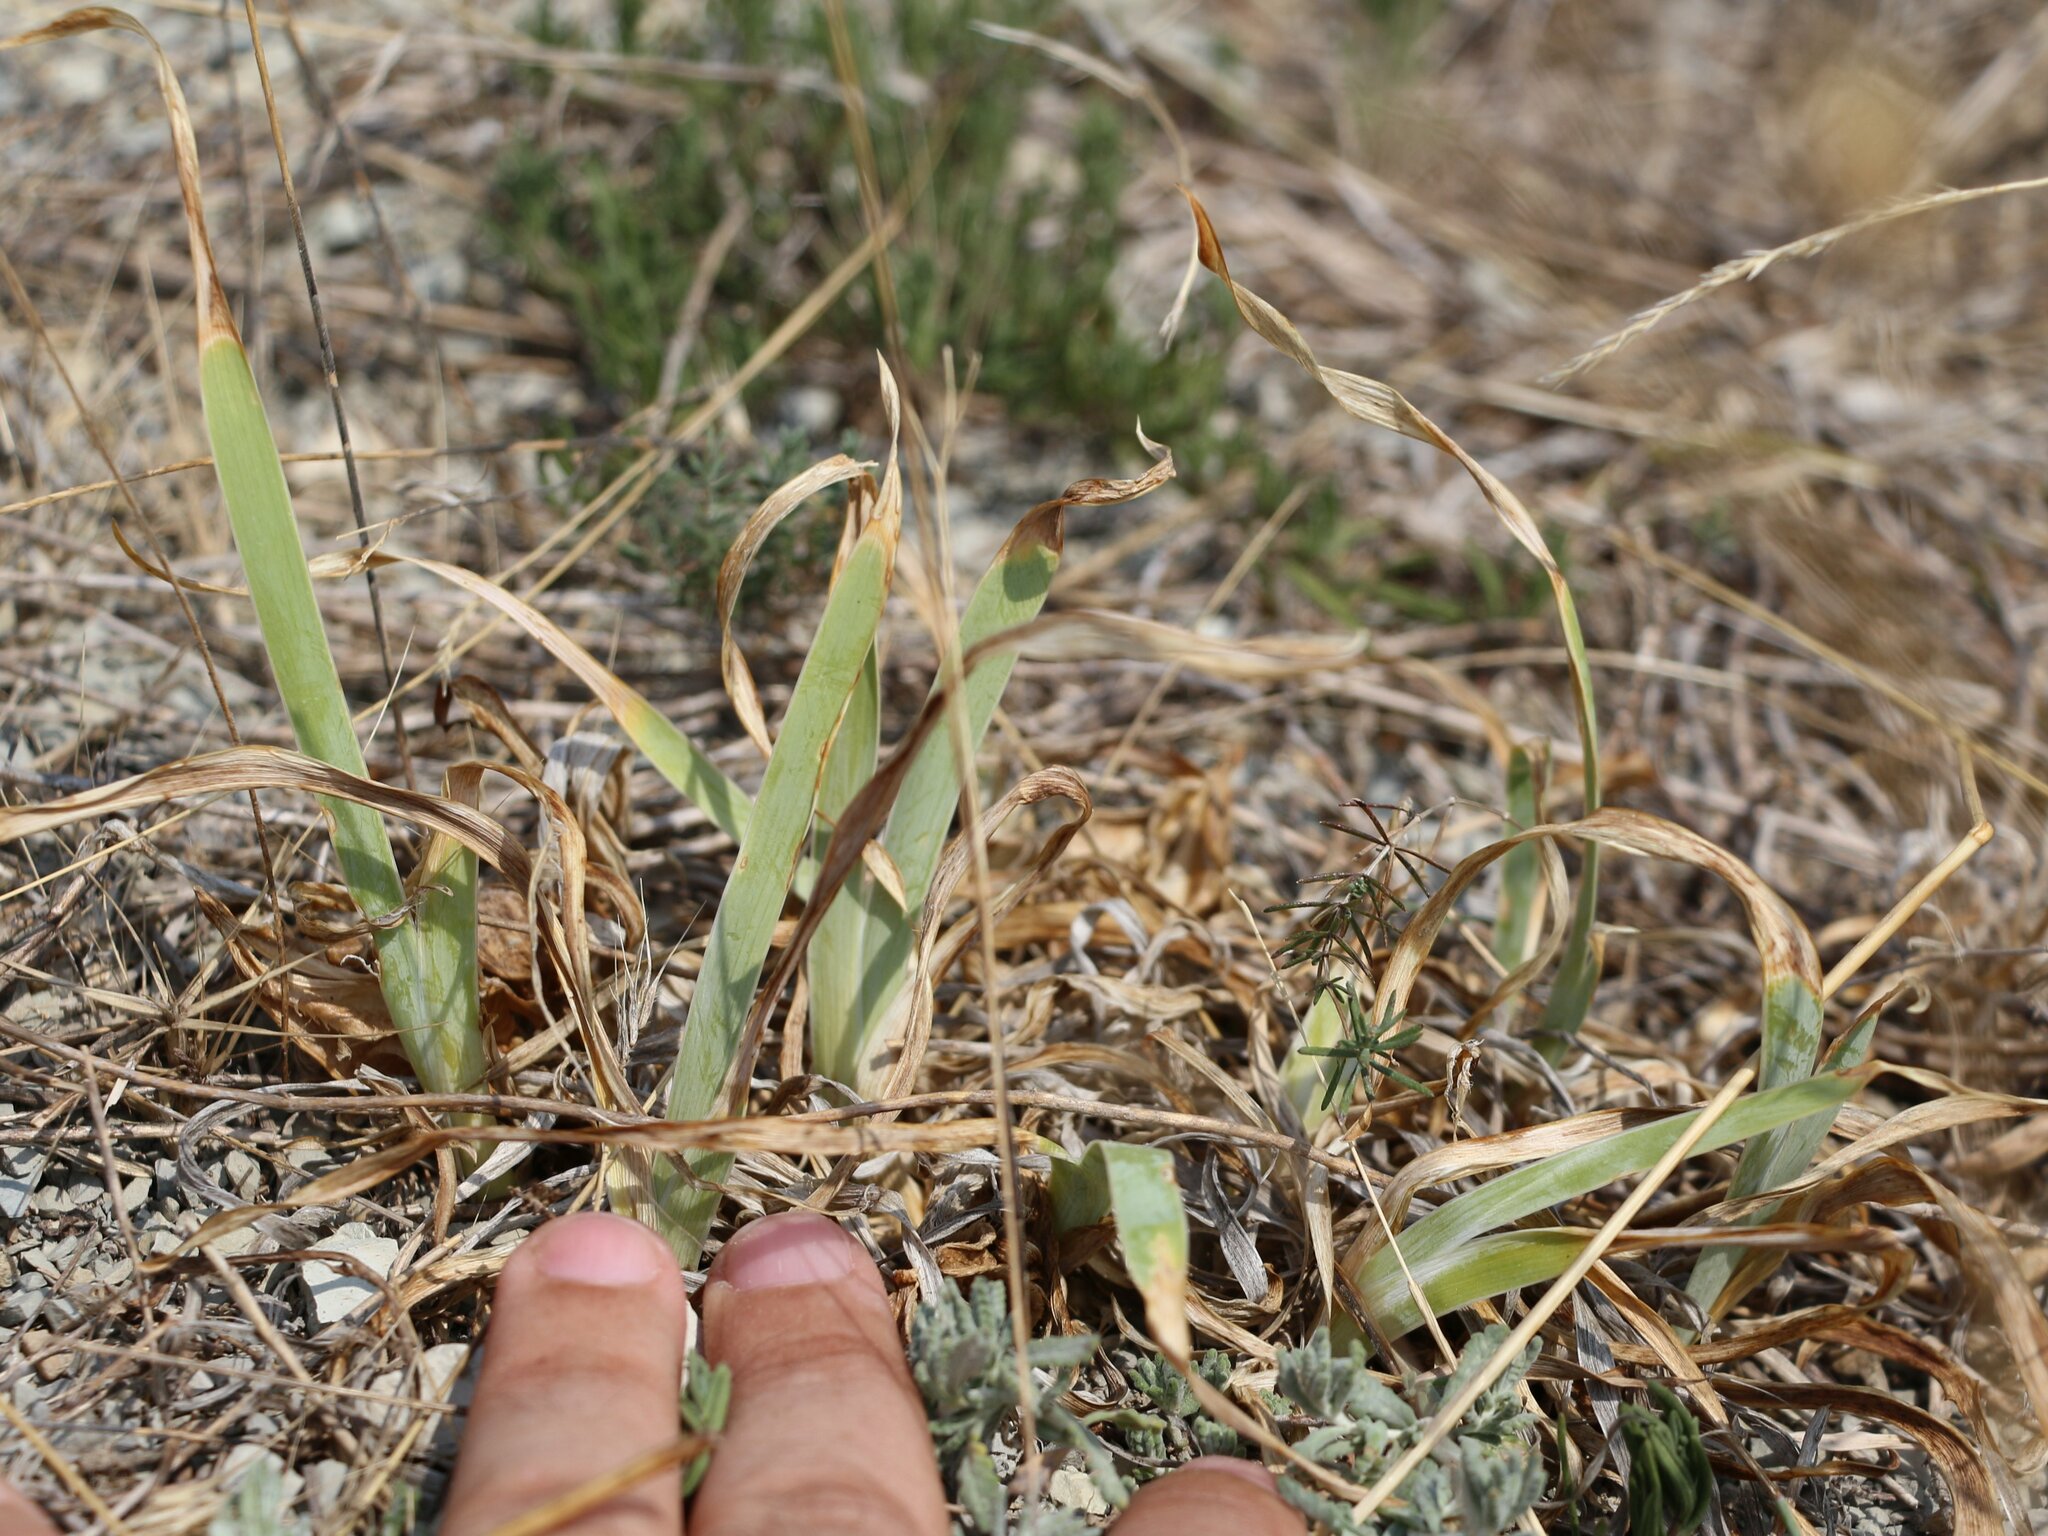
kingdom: Plantae
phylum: Tracheophyta
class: Liliopsida
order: Asparagales
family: Iridaceae
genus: Iris
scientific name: Iris pumila
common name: Dwarf iris
